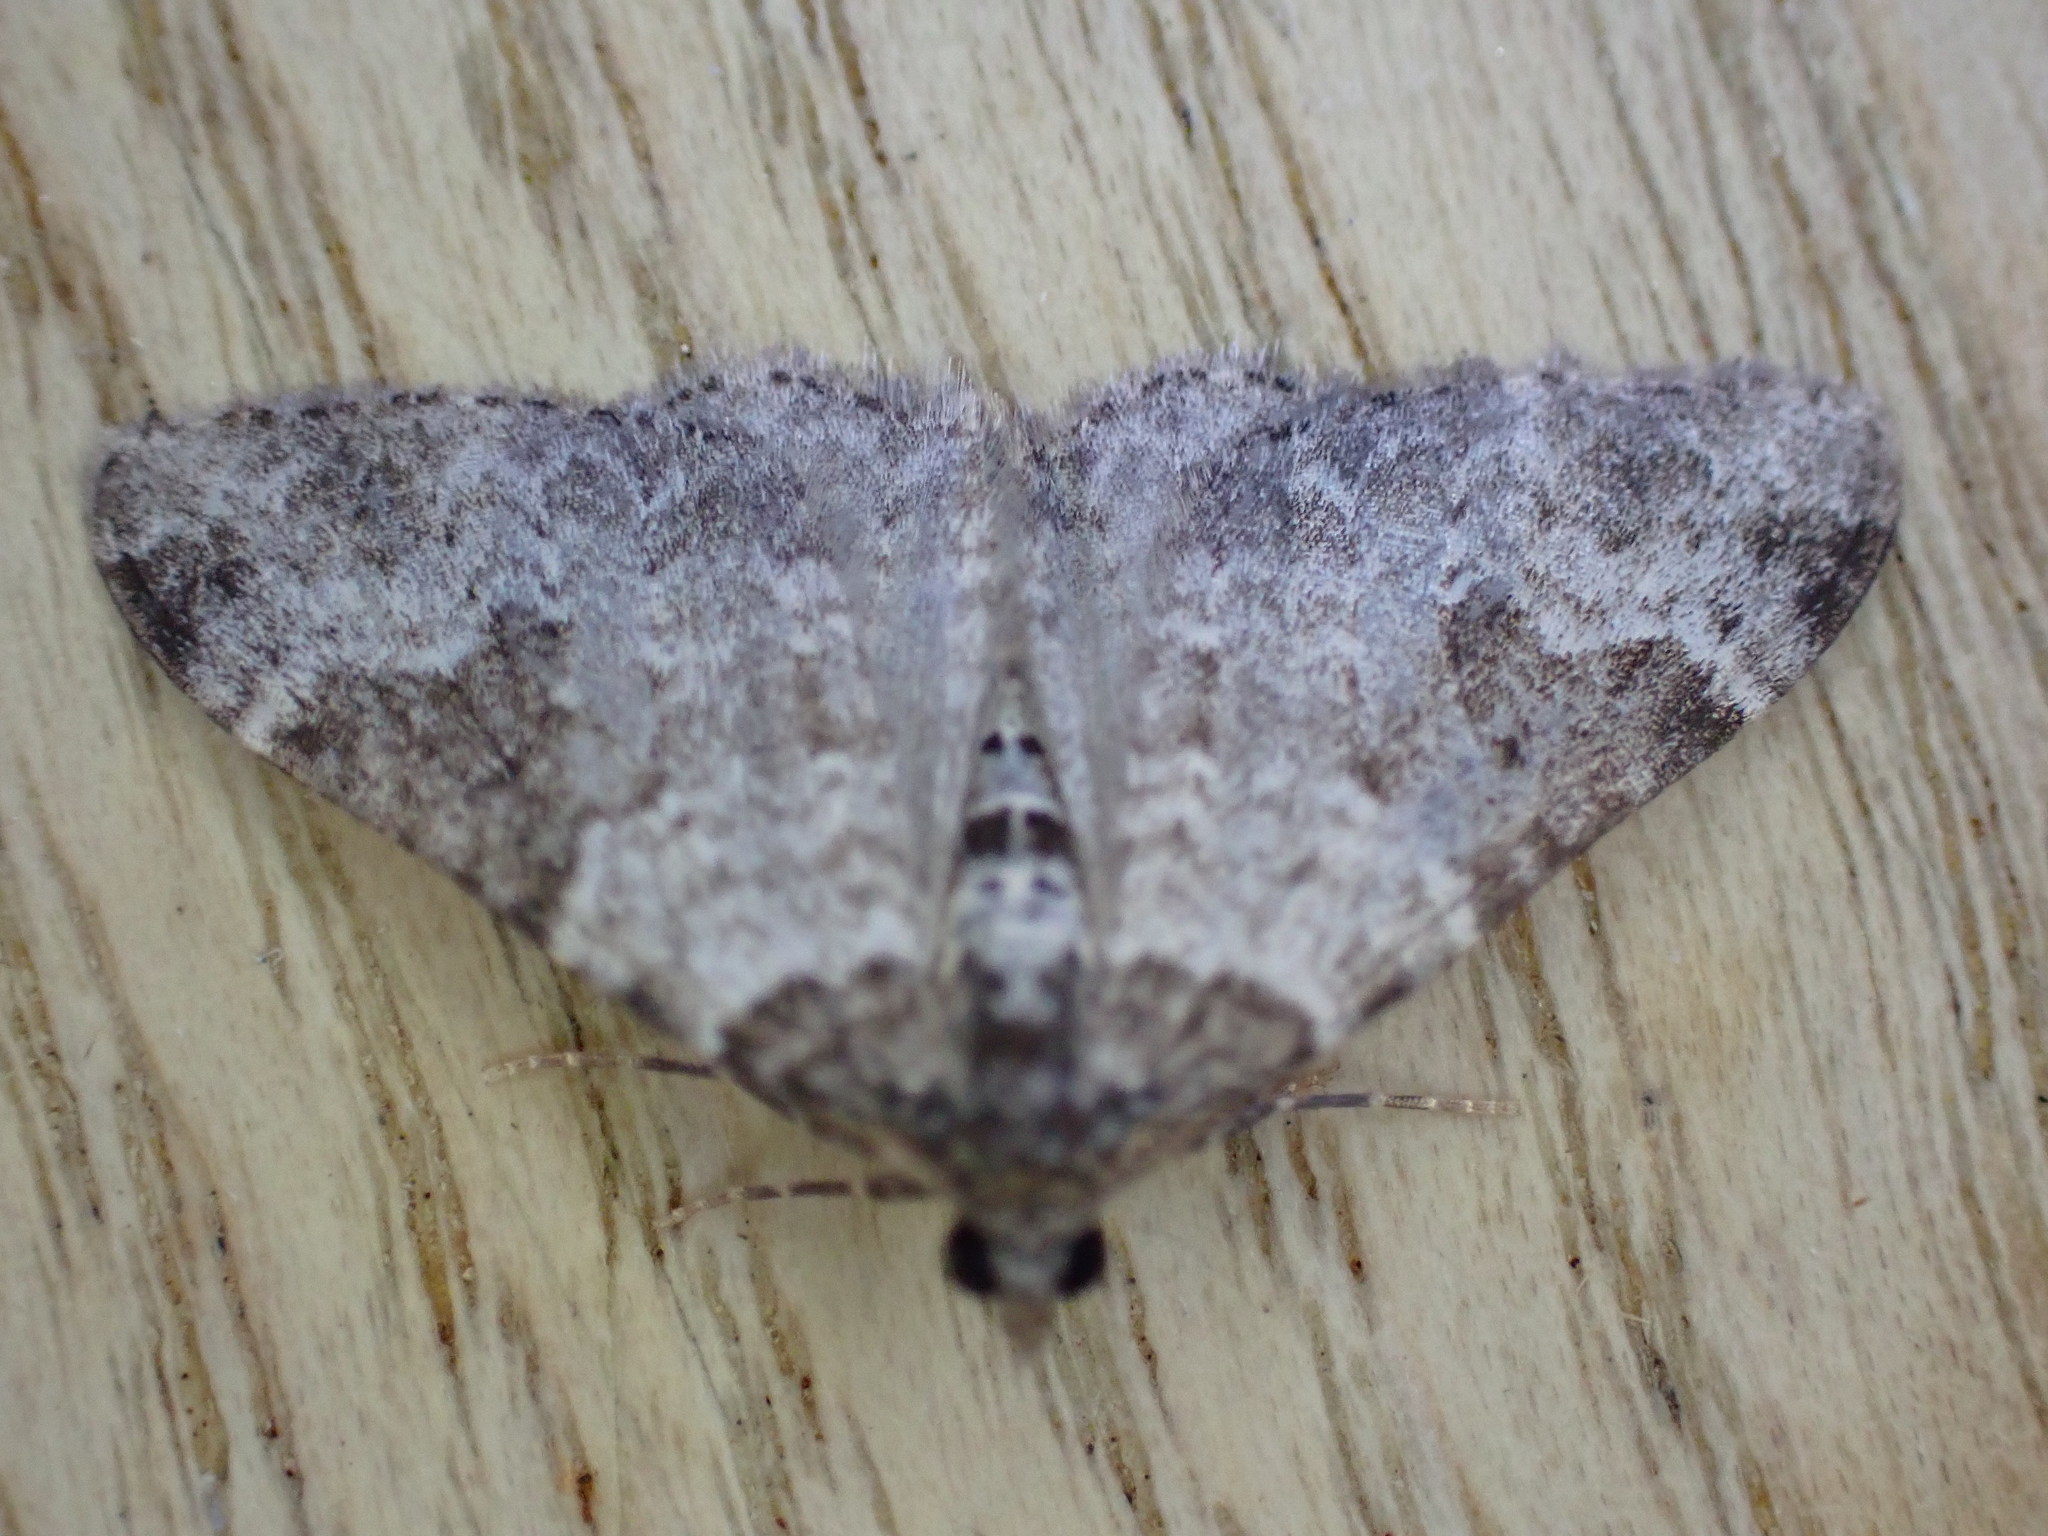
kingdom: Animalia
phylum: Arthropoda
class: Insecta
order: Lepidoptera
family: Geometridae
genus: Xanthorhoe
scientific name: Xanthorhoe fluctuata
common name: Garden carpet
